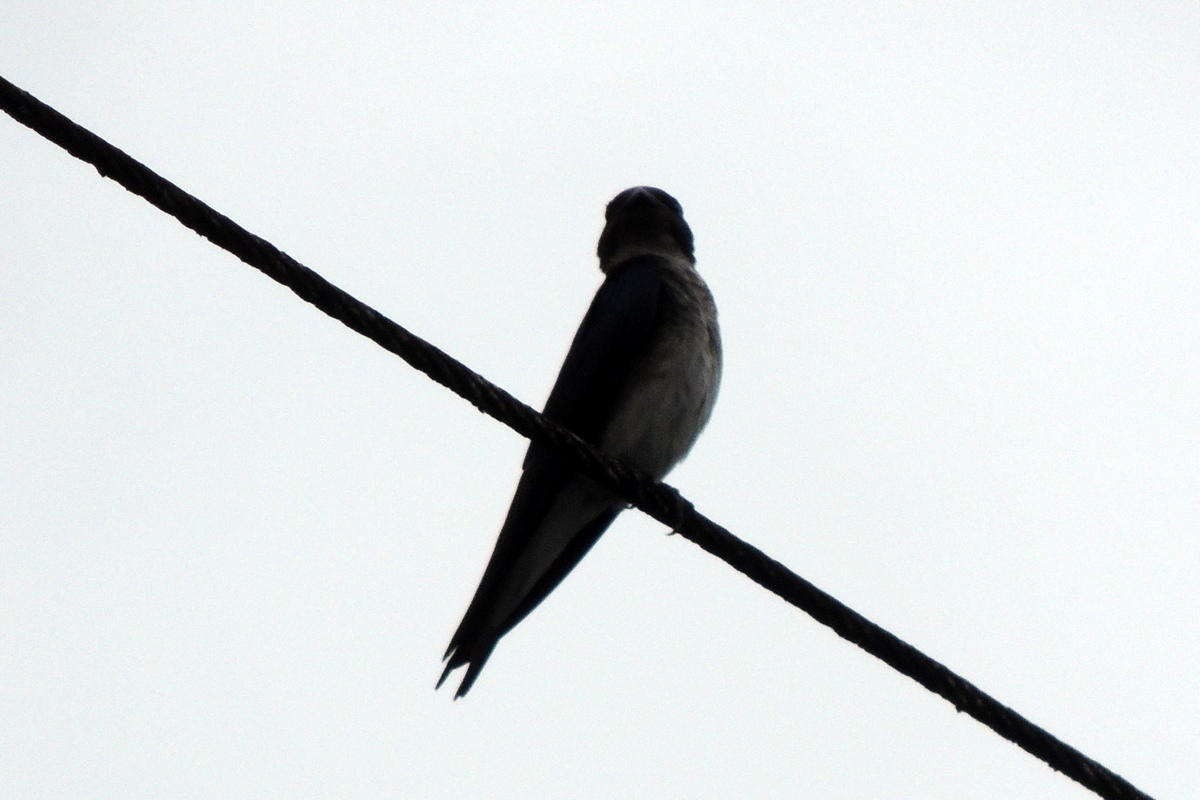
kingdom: Animalia
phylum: Chordata
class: Aves
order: Passeriformes
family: Hirundinidae
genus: Progne
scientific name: Progne chalybea
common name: Grey-breasted martin
